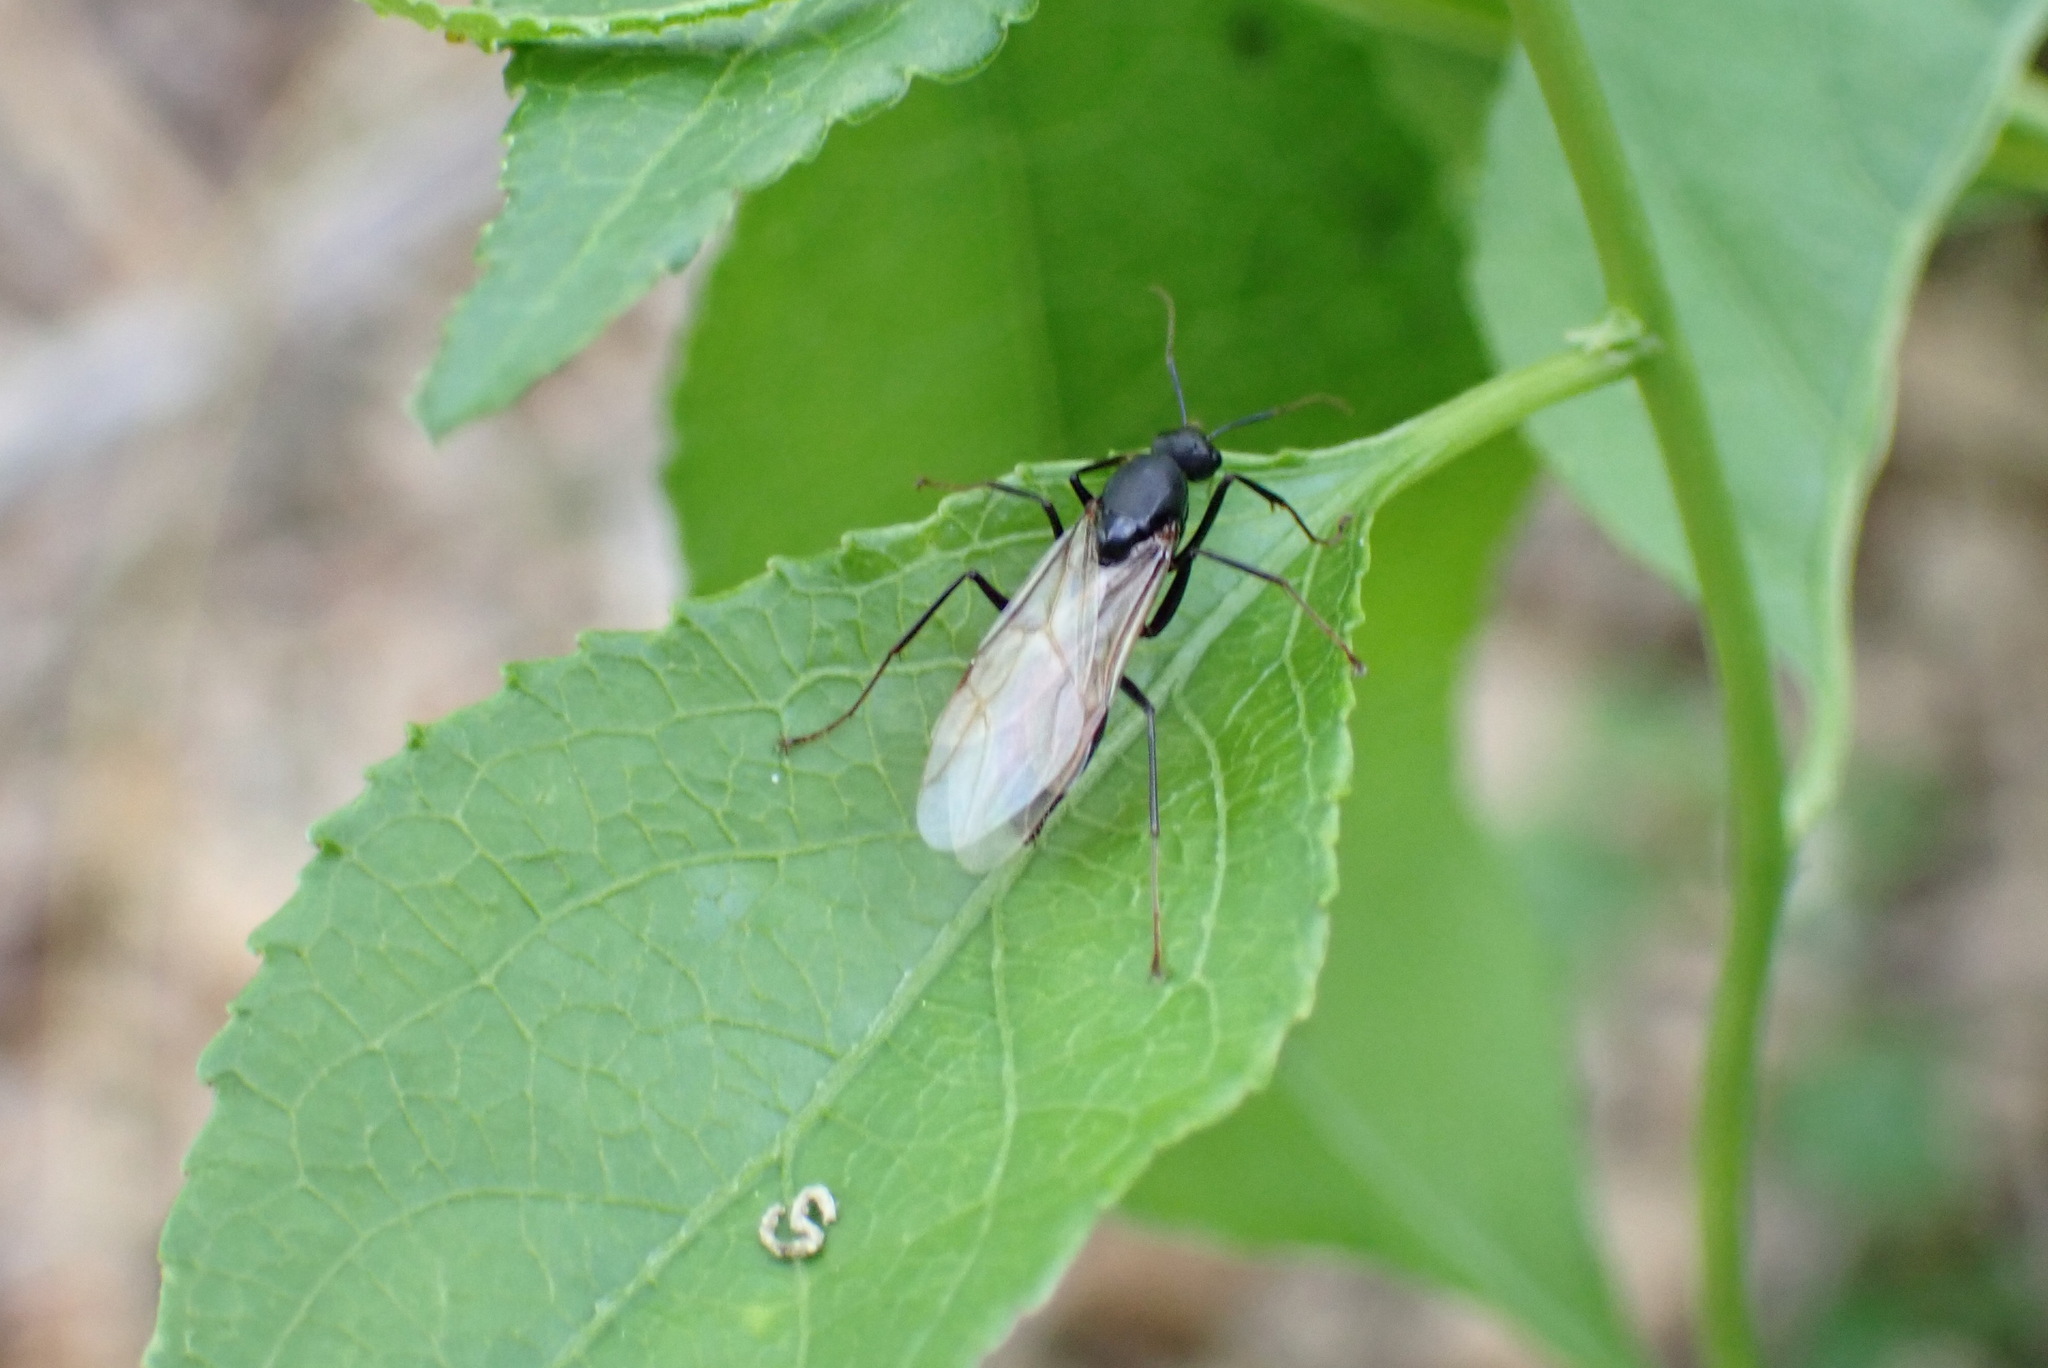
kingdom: Animalia
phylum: Arthropoda
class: Insecta
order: Hymenoptera
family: Formicidae
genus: Camponotus
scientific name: Camponotus pennsylvanicus
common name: Black carpenter ant
